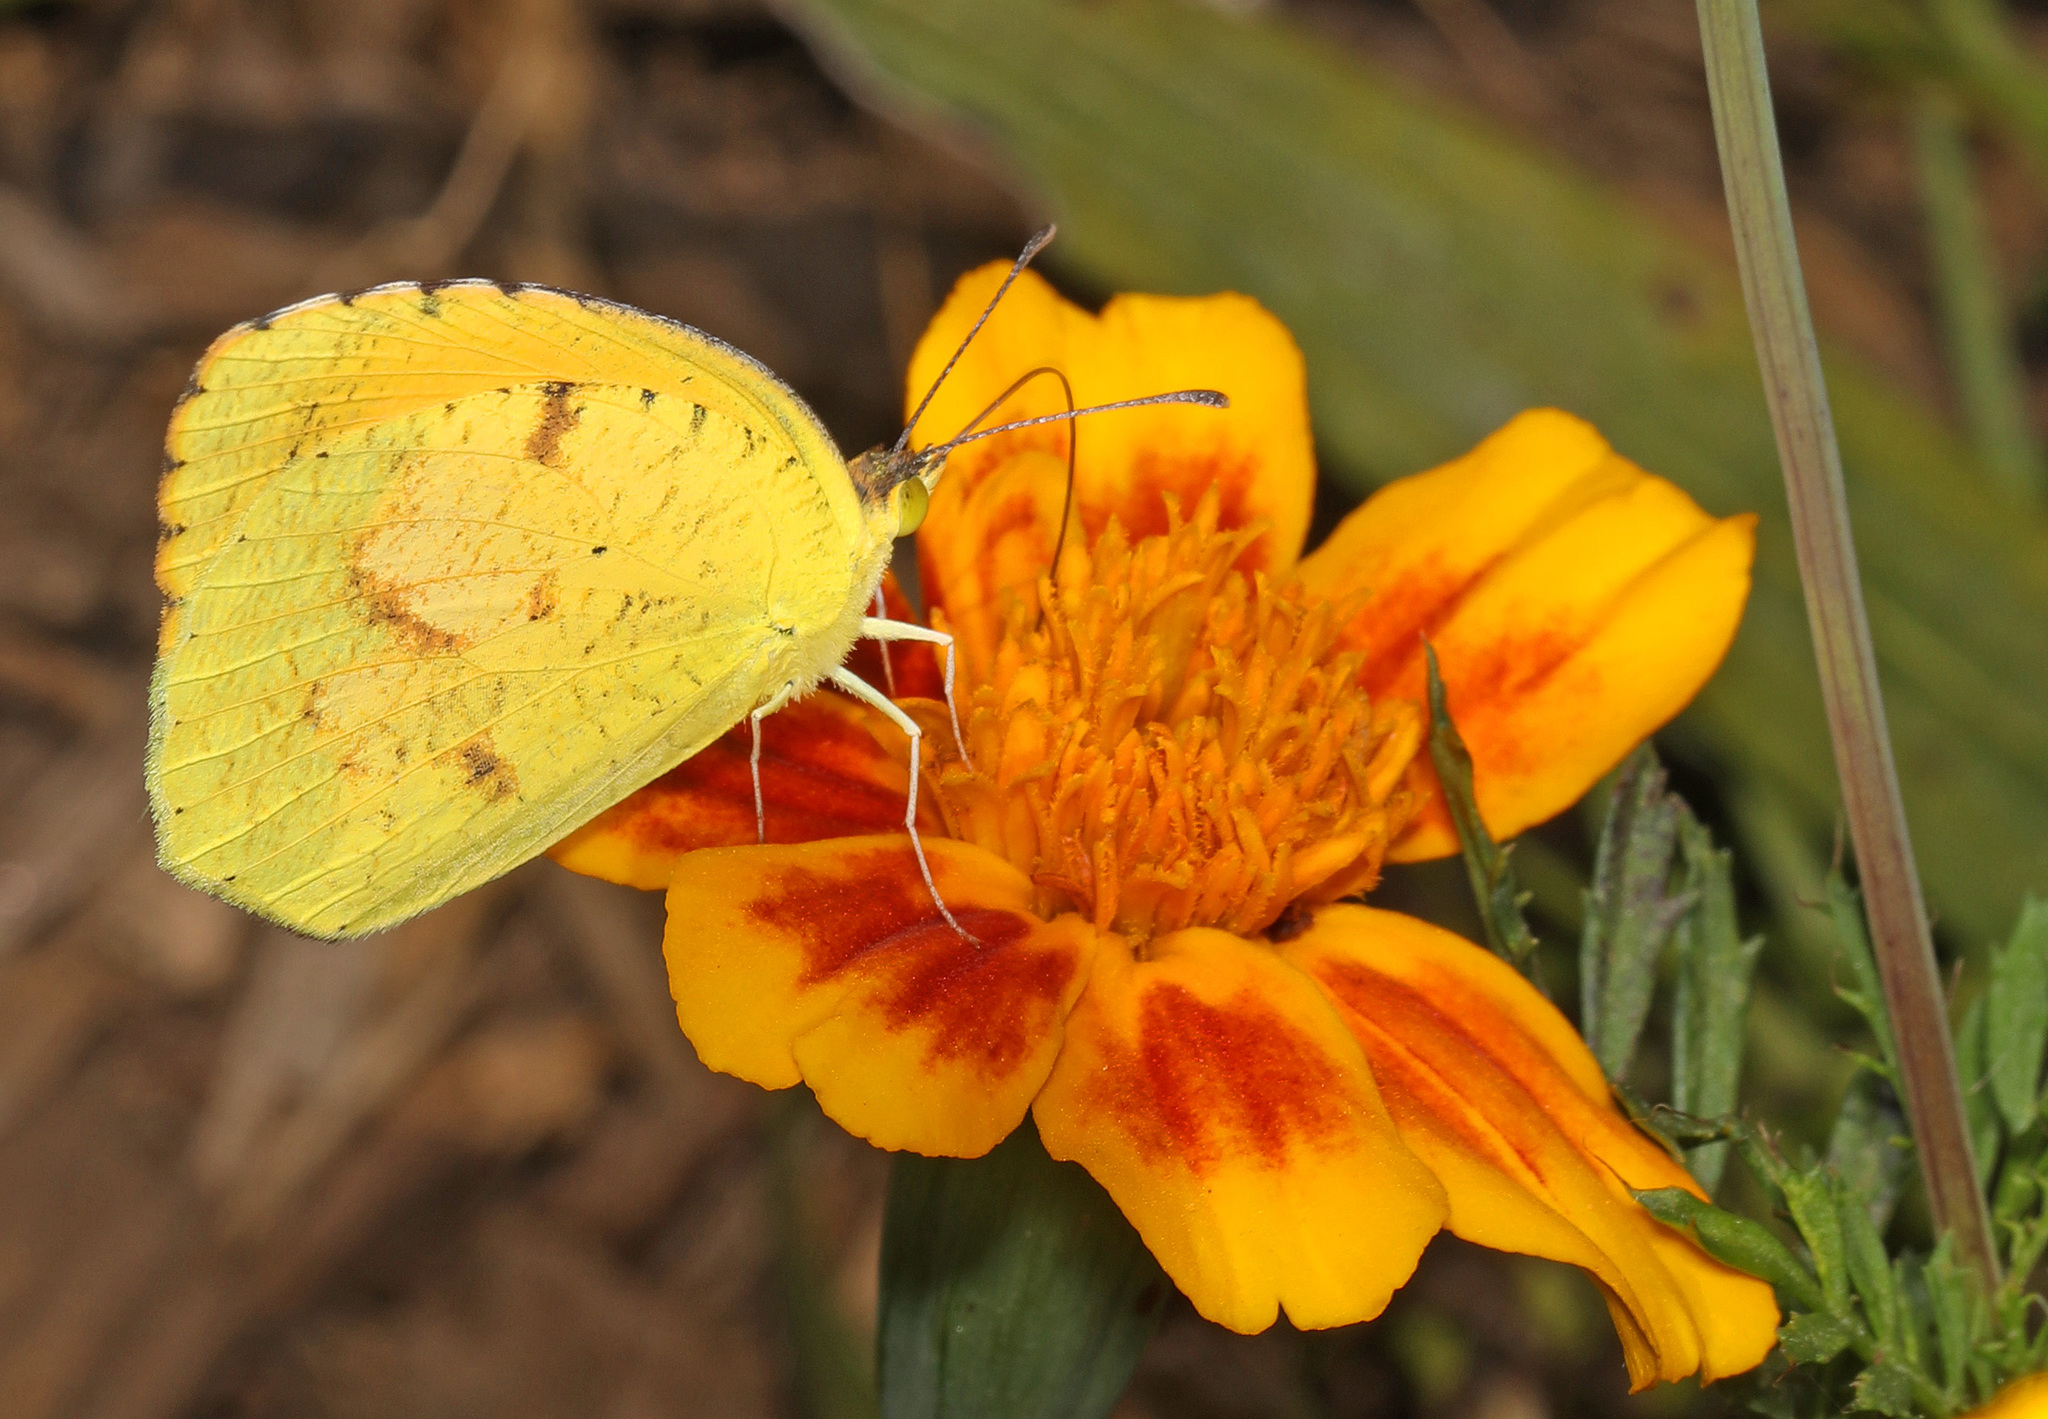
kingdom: Animalia
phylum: Arthropoda
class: Insecta
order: Lepidoptera
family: Pieridae
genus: Abaeis
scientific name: Abaeis nicippe
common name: Sleepy orange
